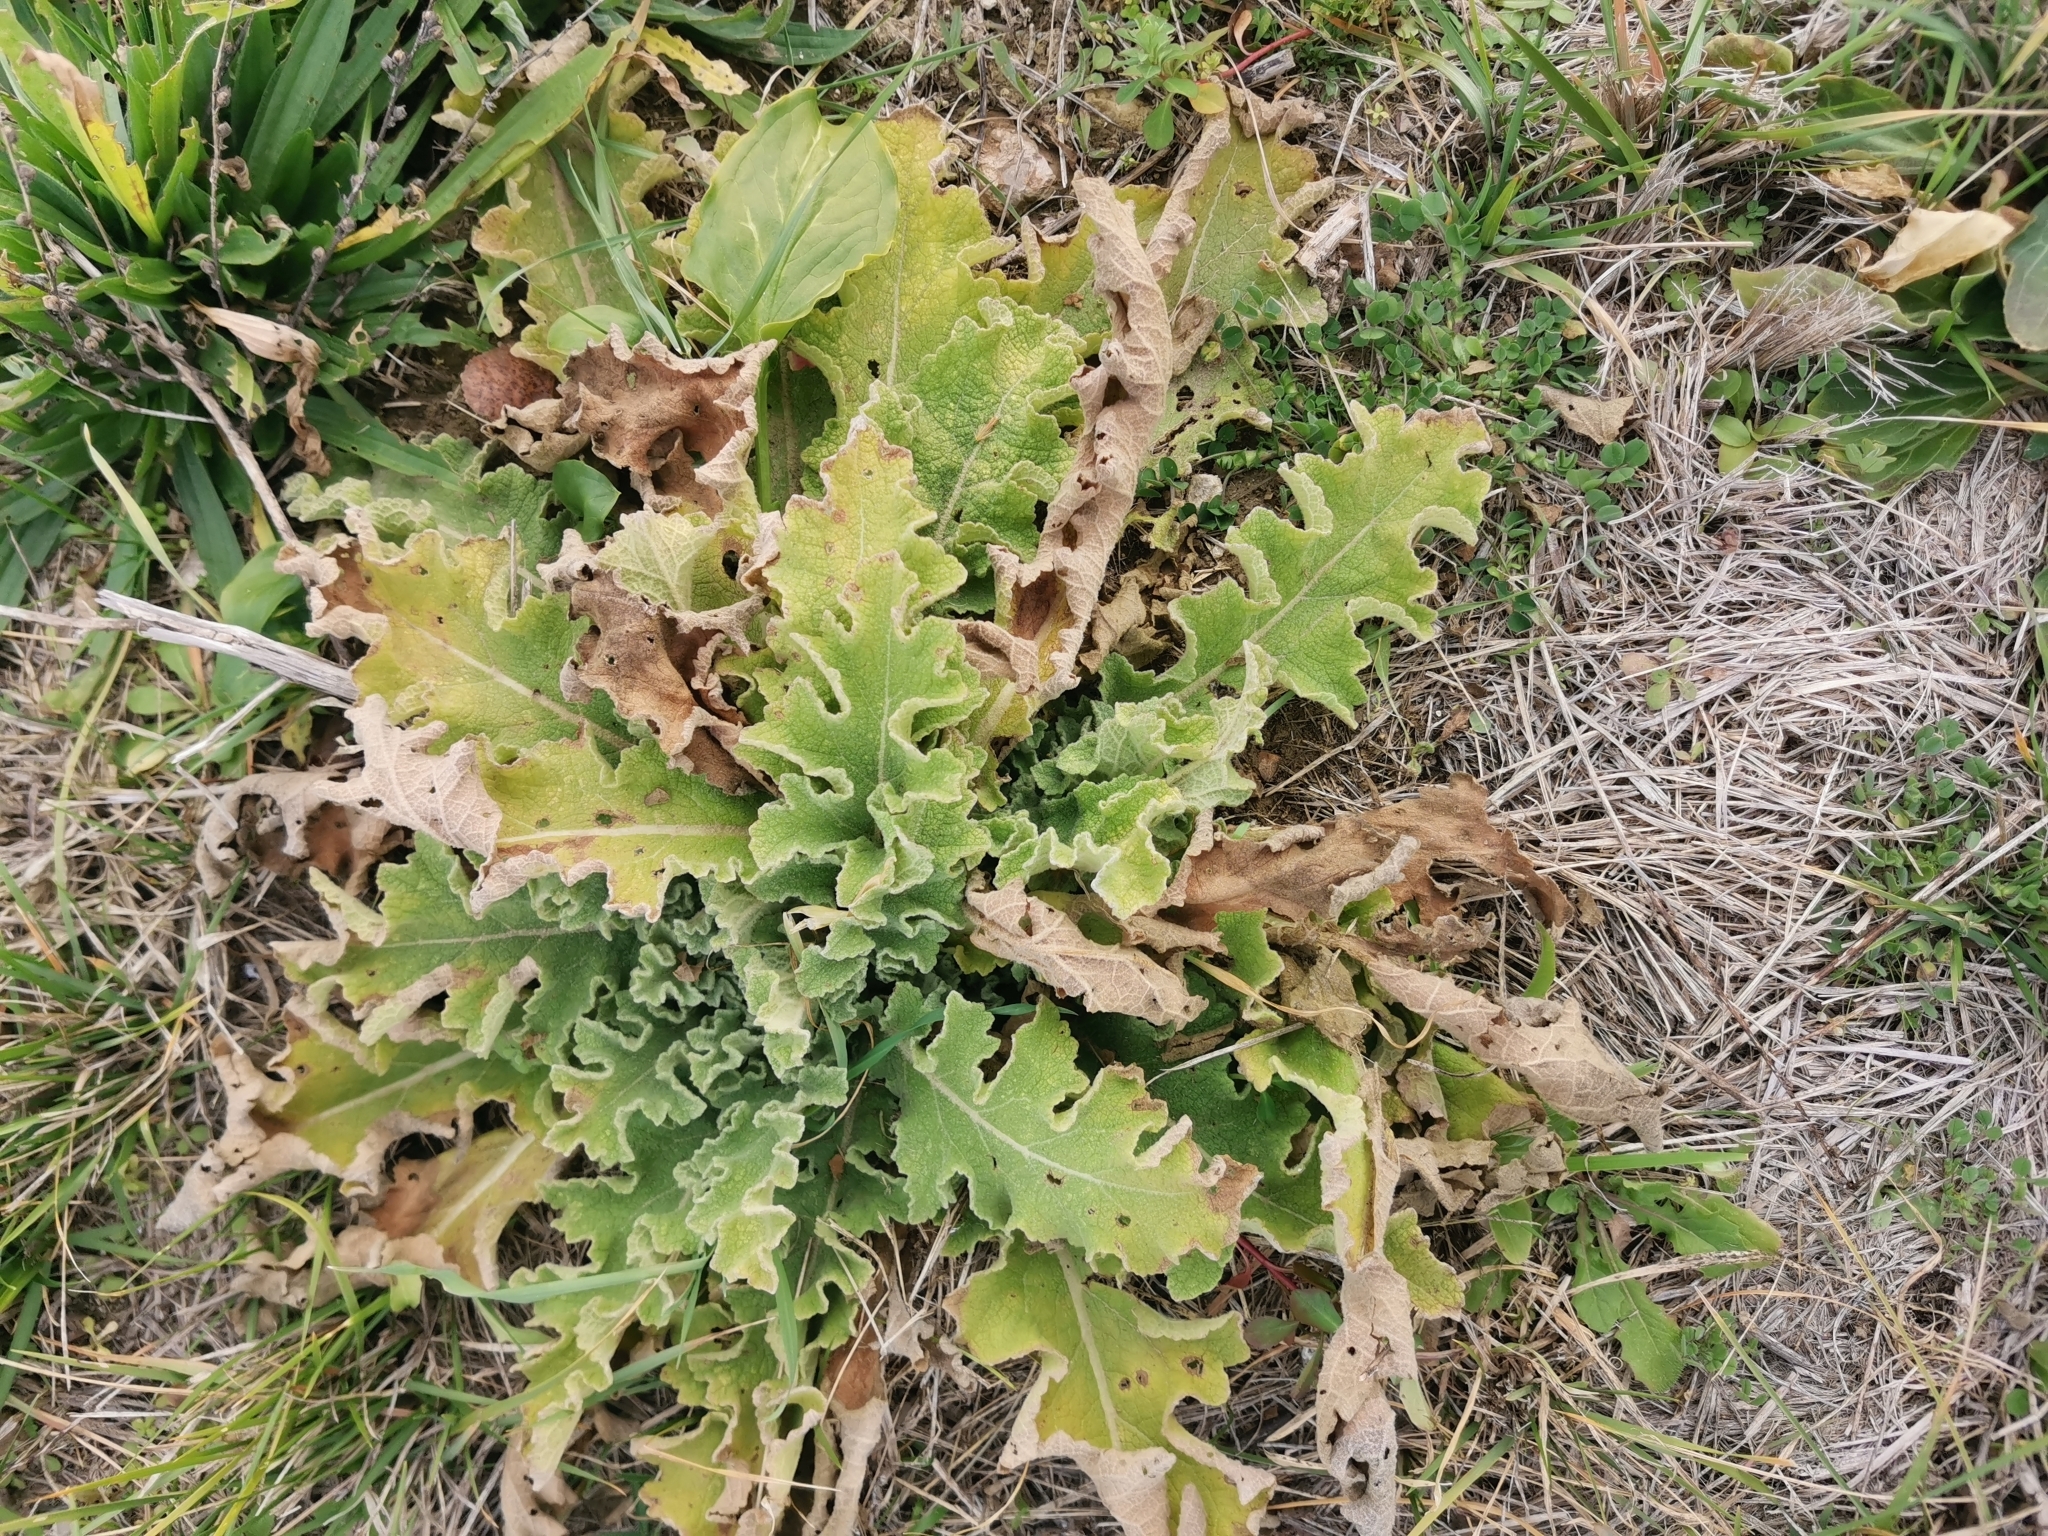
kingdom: Plantae
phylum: Tracheophyta
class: Magnoliopsida
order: Lamiales
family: Scrophulariaceae
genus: Verbascum
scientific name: Verbascum sinuatum
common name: Wavyleaf mullein
